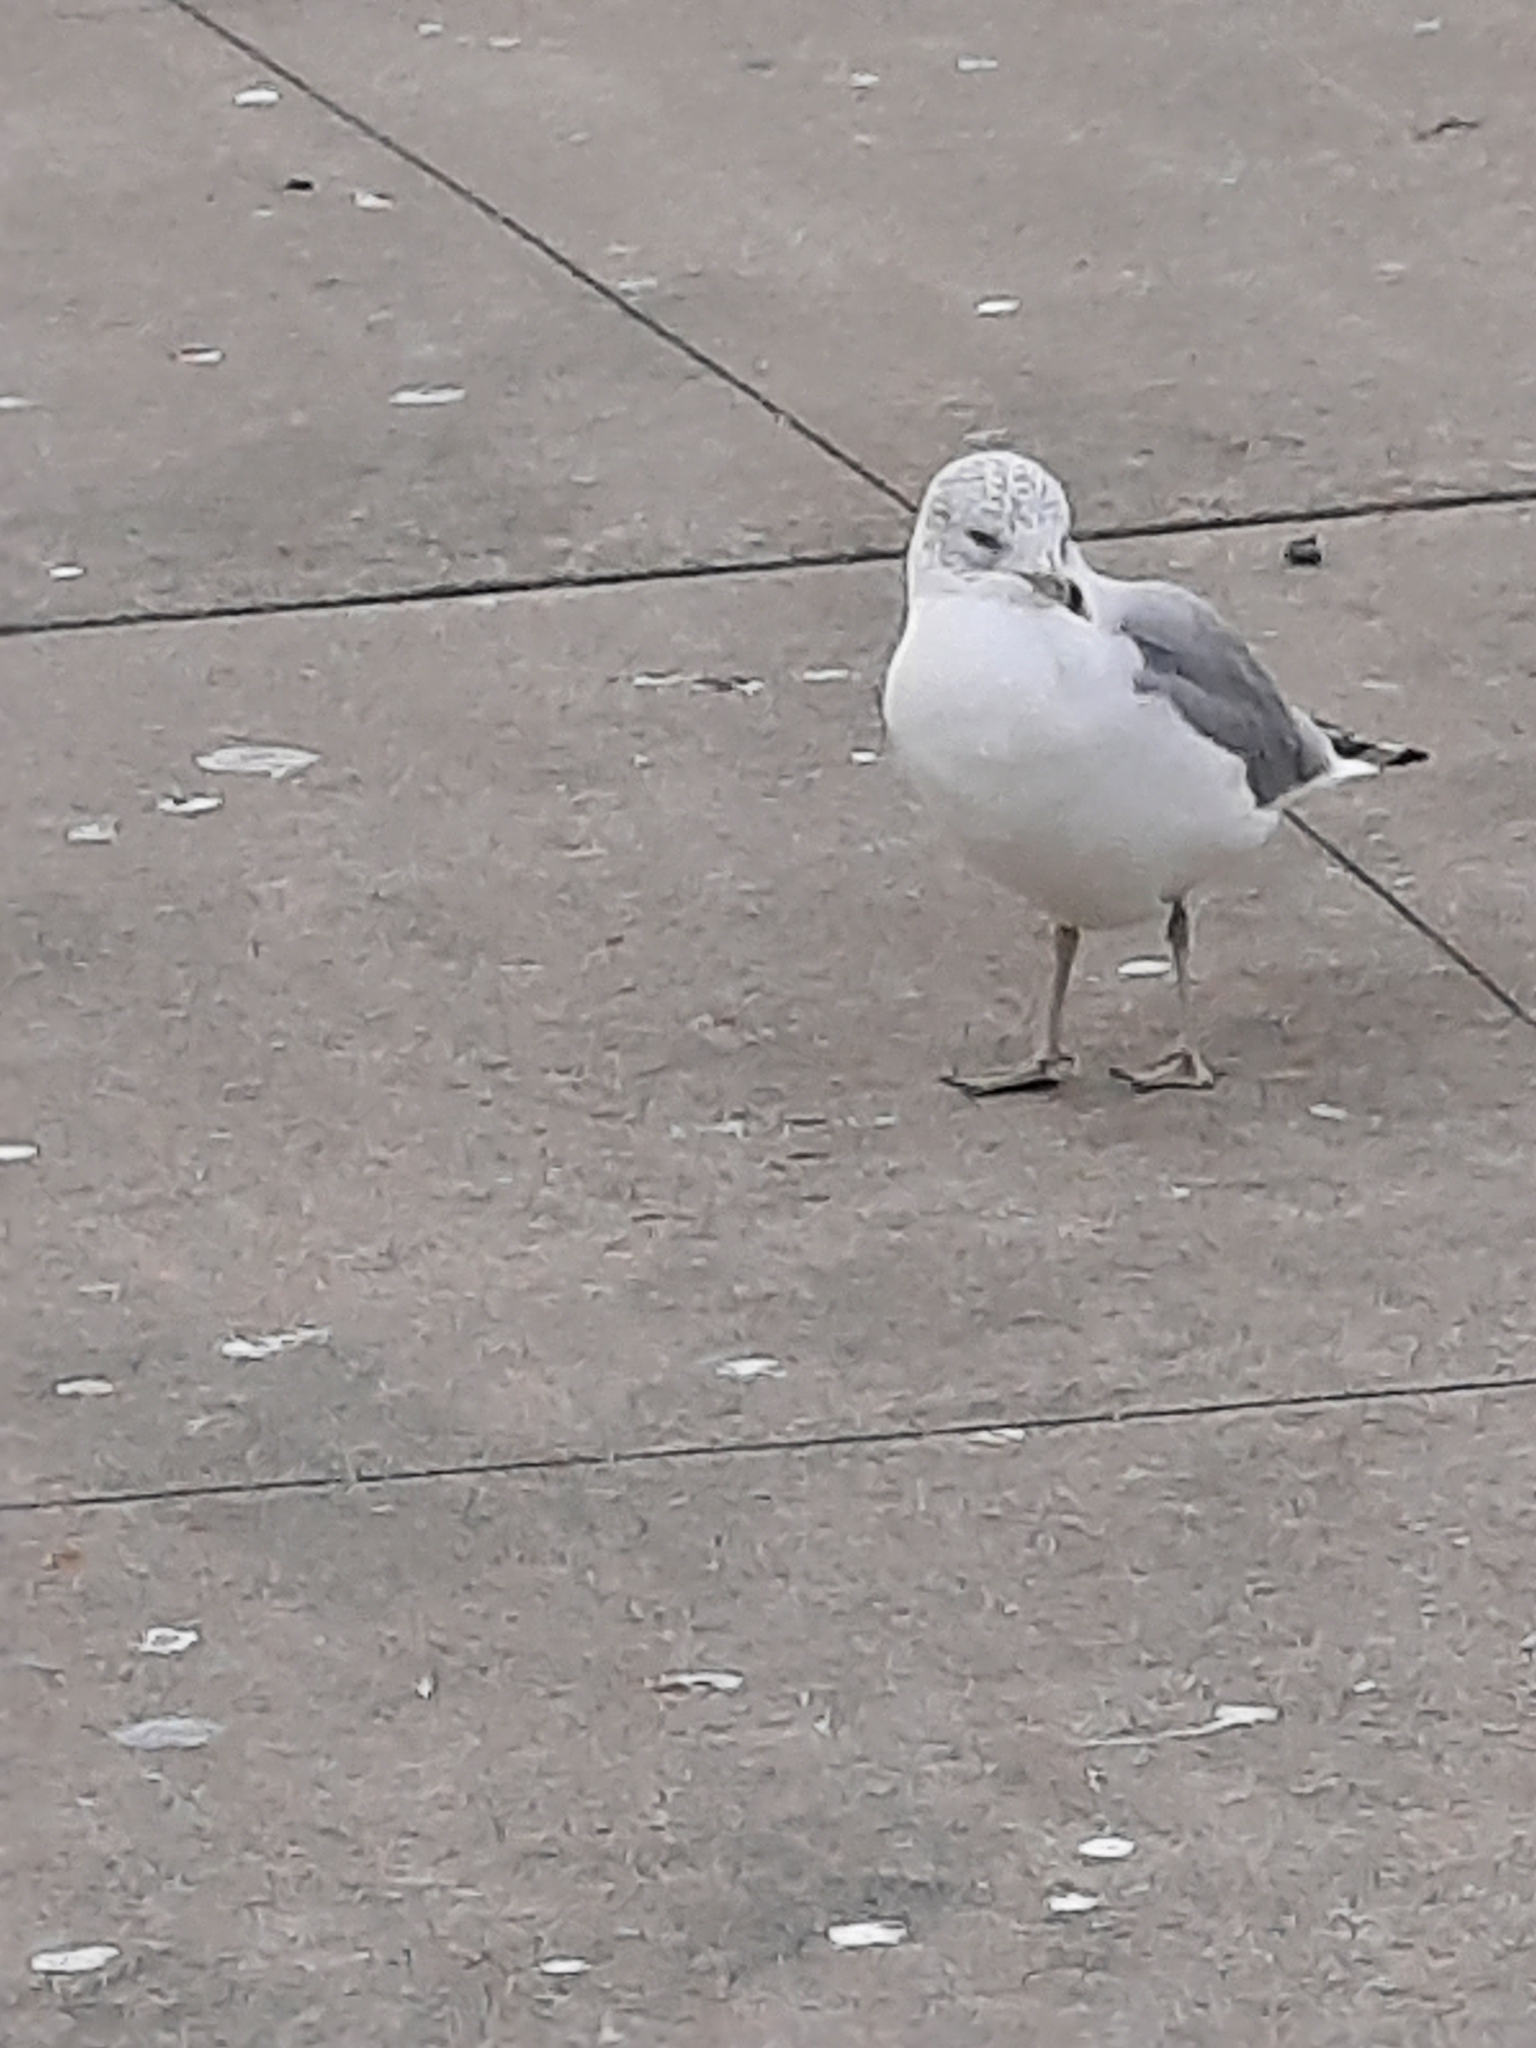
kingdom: Animalia
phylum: Chordata
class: Aves
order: Charadriiformes
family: Laridae
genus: Larus
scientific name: Larus delawarensis
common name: Ring-billed gull
